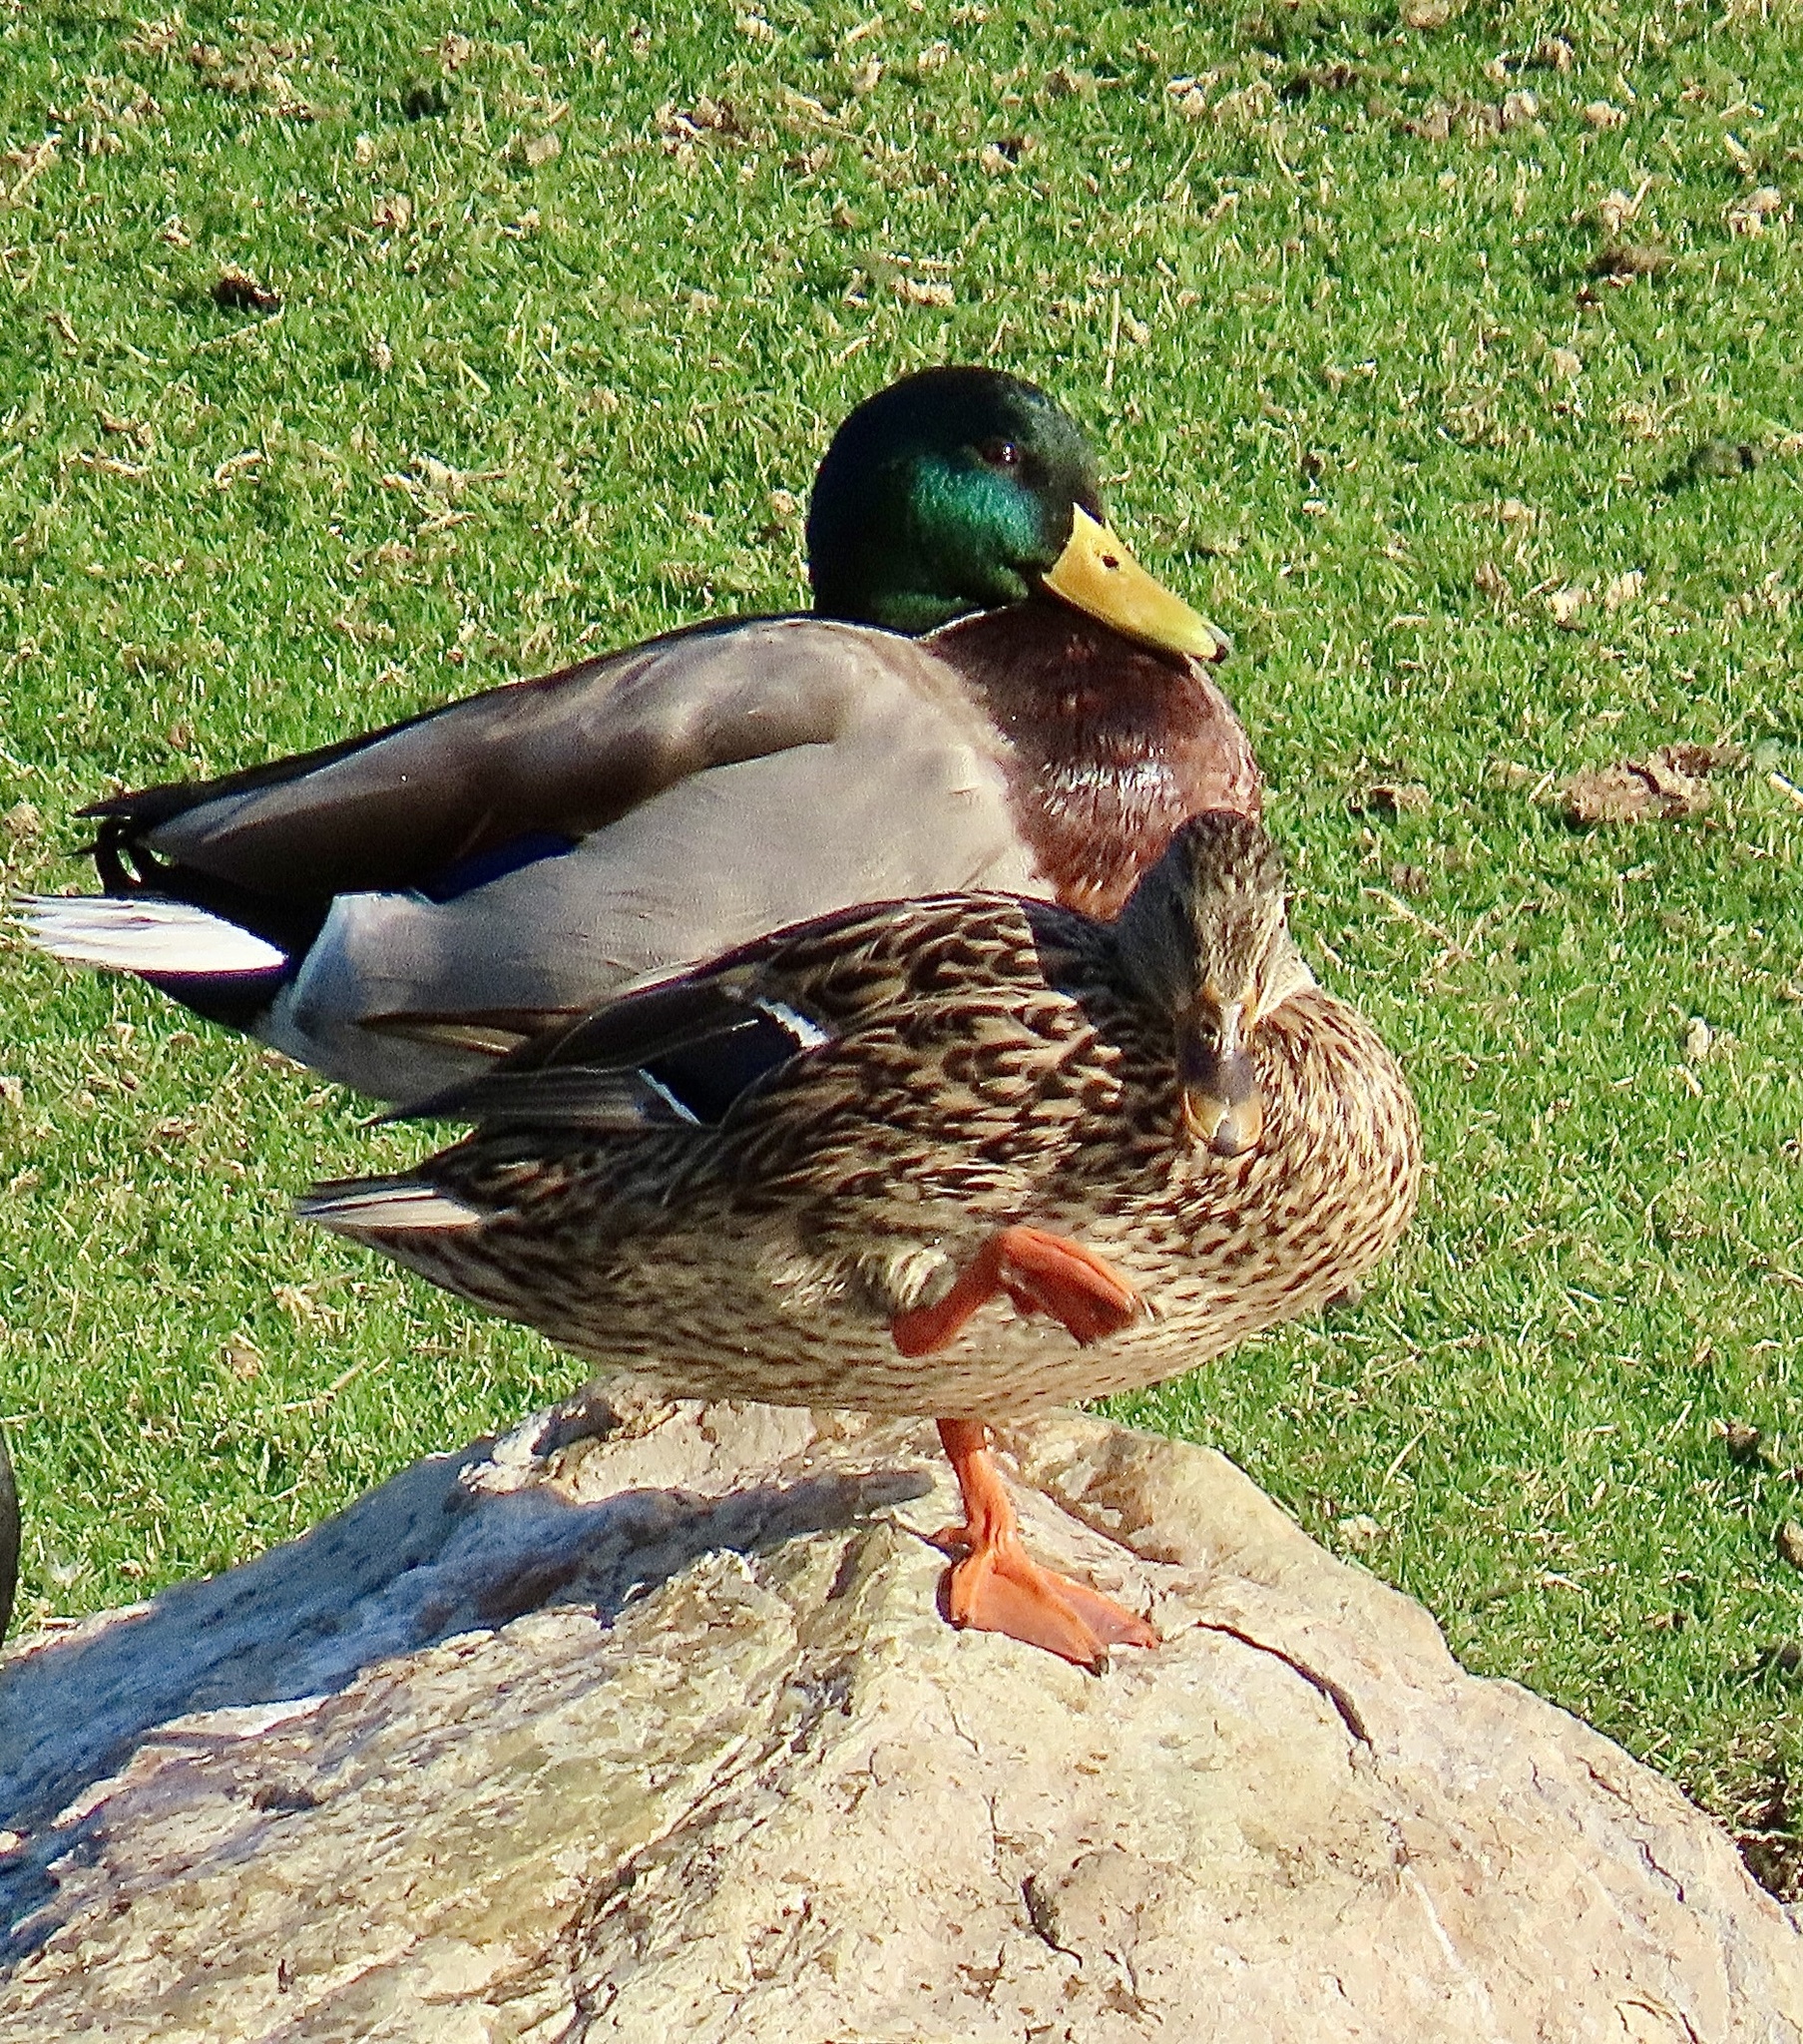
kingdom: Animalia
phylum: Chordata
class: Aves
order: Anseriformes
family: Anatidae
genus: Anas
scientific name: Anas platyrhynchos
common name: Mallard
